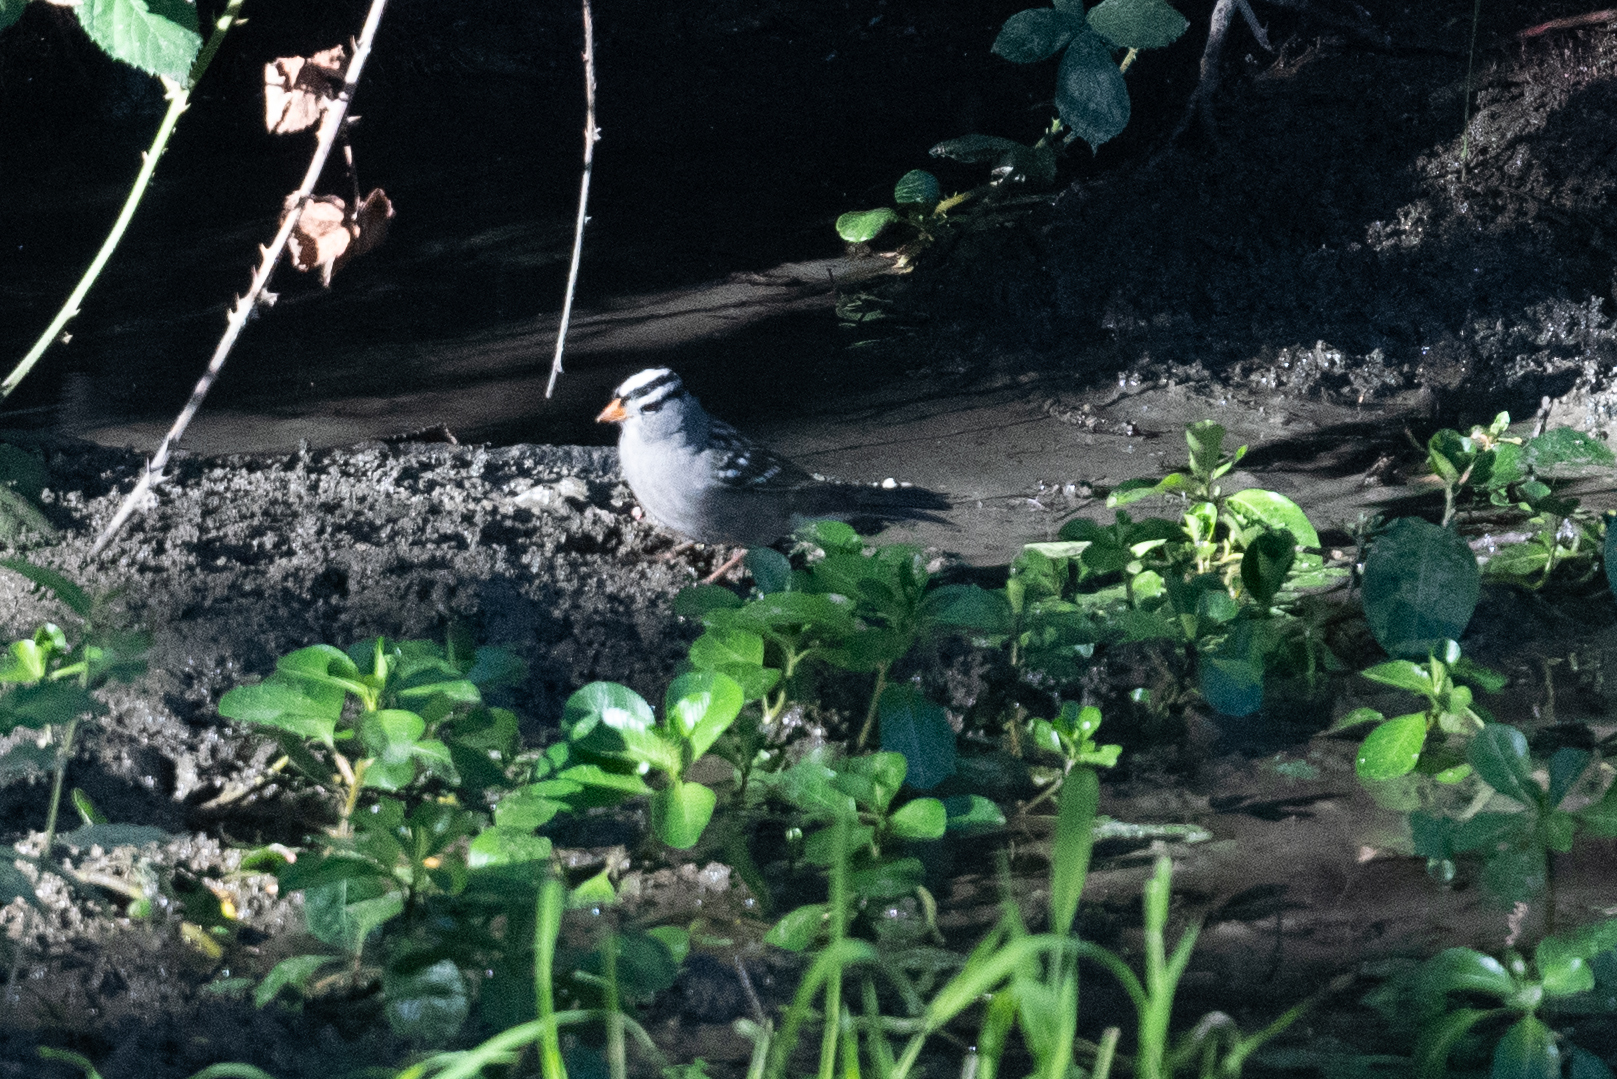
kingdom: Animalia
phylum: Chordata
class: Aves
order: Passeriformes
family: Passerellidae
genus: Zonotrichia
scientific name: Zonotrichia leucophrys
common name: White-crowned sparrow
